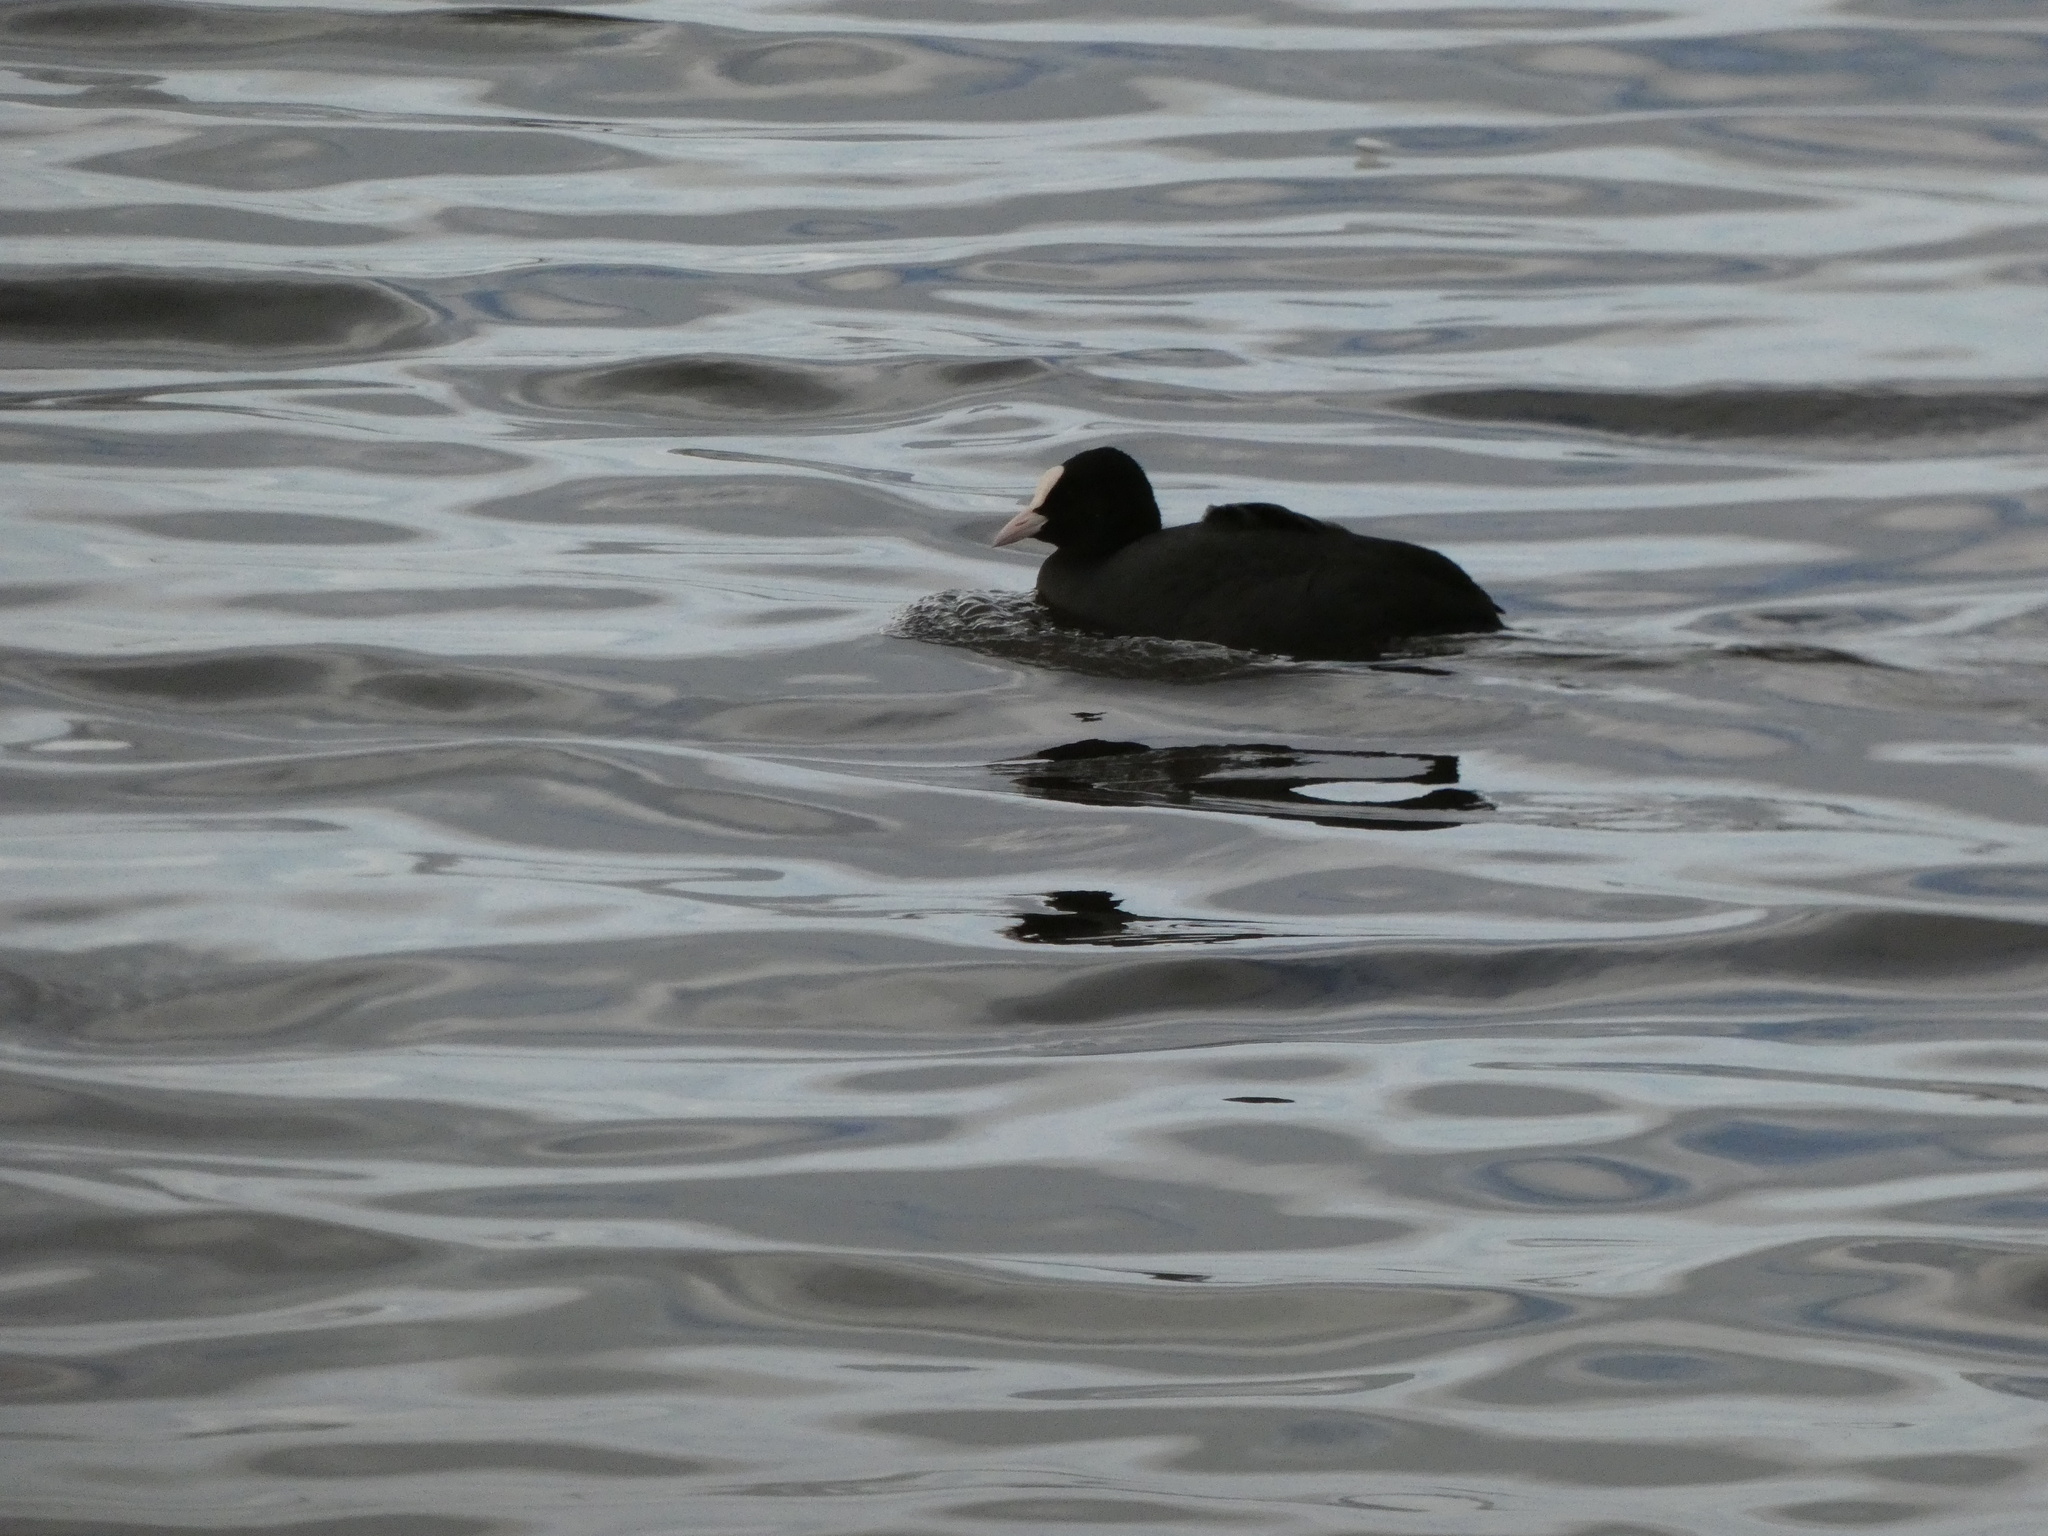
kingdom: Animalia
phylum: Chordata
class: Aves
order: Gruiformes
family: Rallidae
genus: Fulica
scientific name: Fulica atra
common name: Eurasian coot
